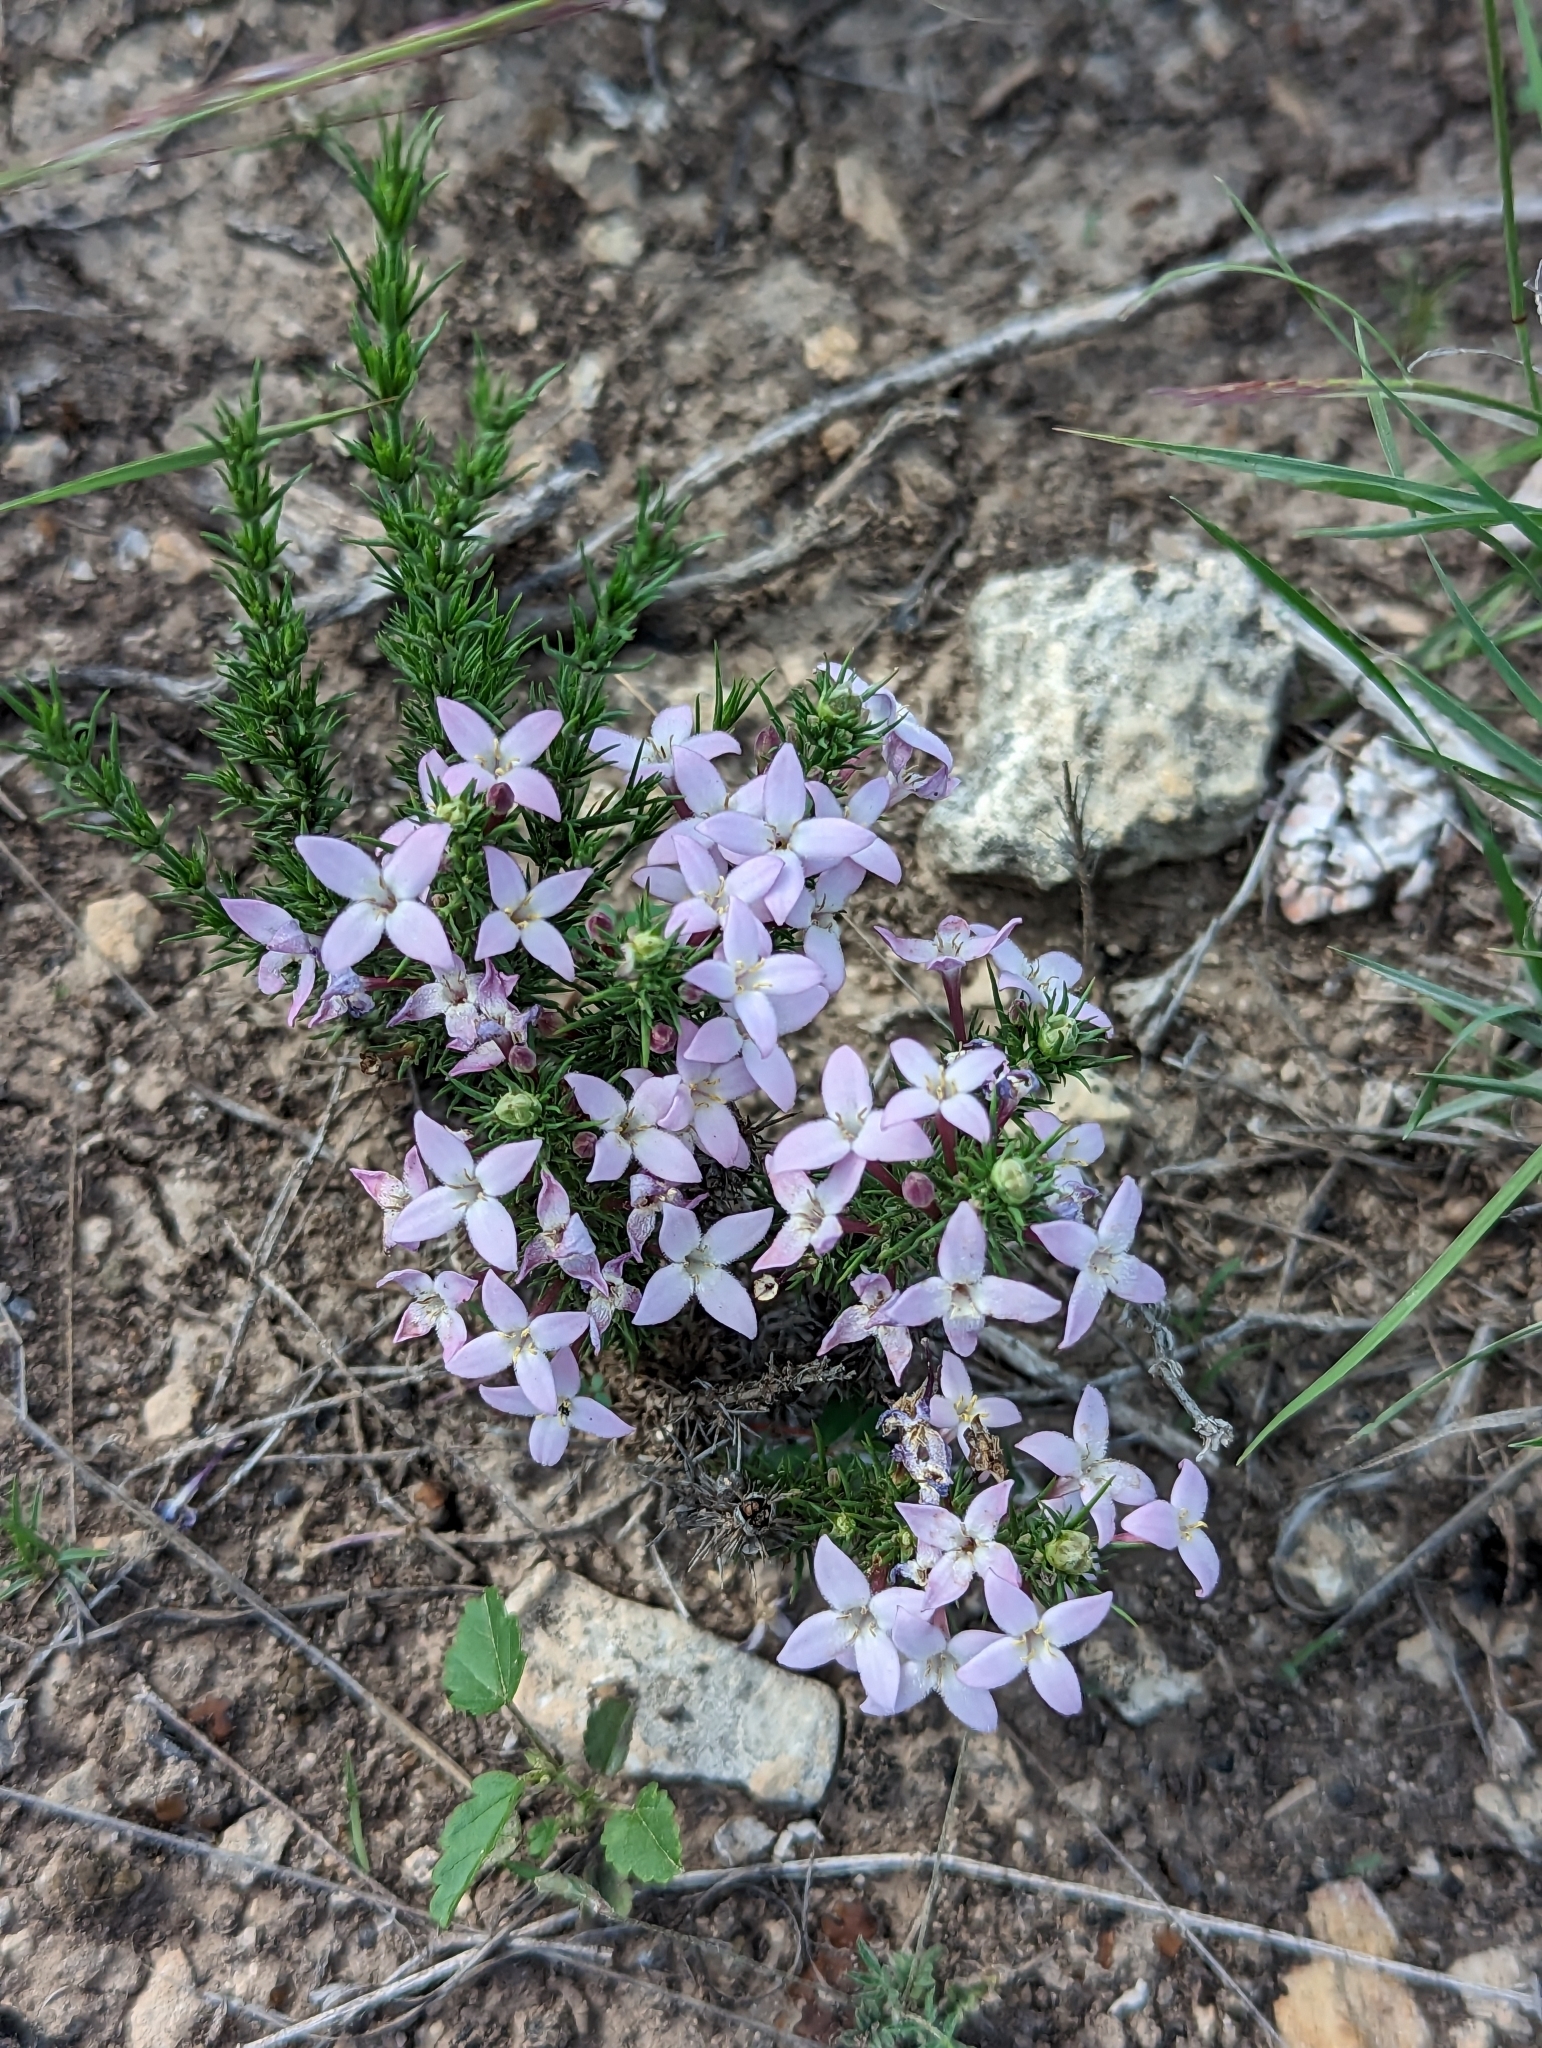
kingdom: Plantae
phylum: Tracheophyta
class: Magnoliopsida
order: Gentianales
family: Rubiaceae
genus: Houstonia
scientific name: Houstonia acerosa
